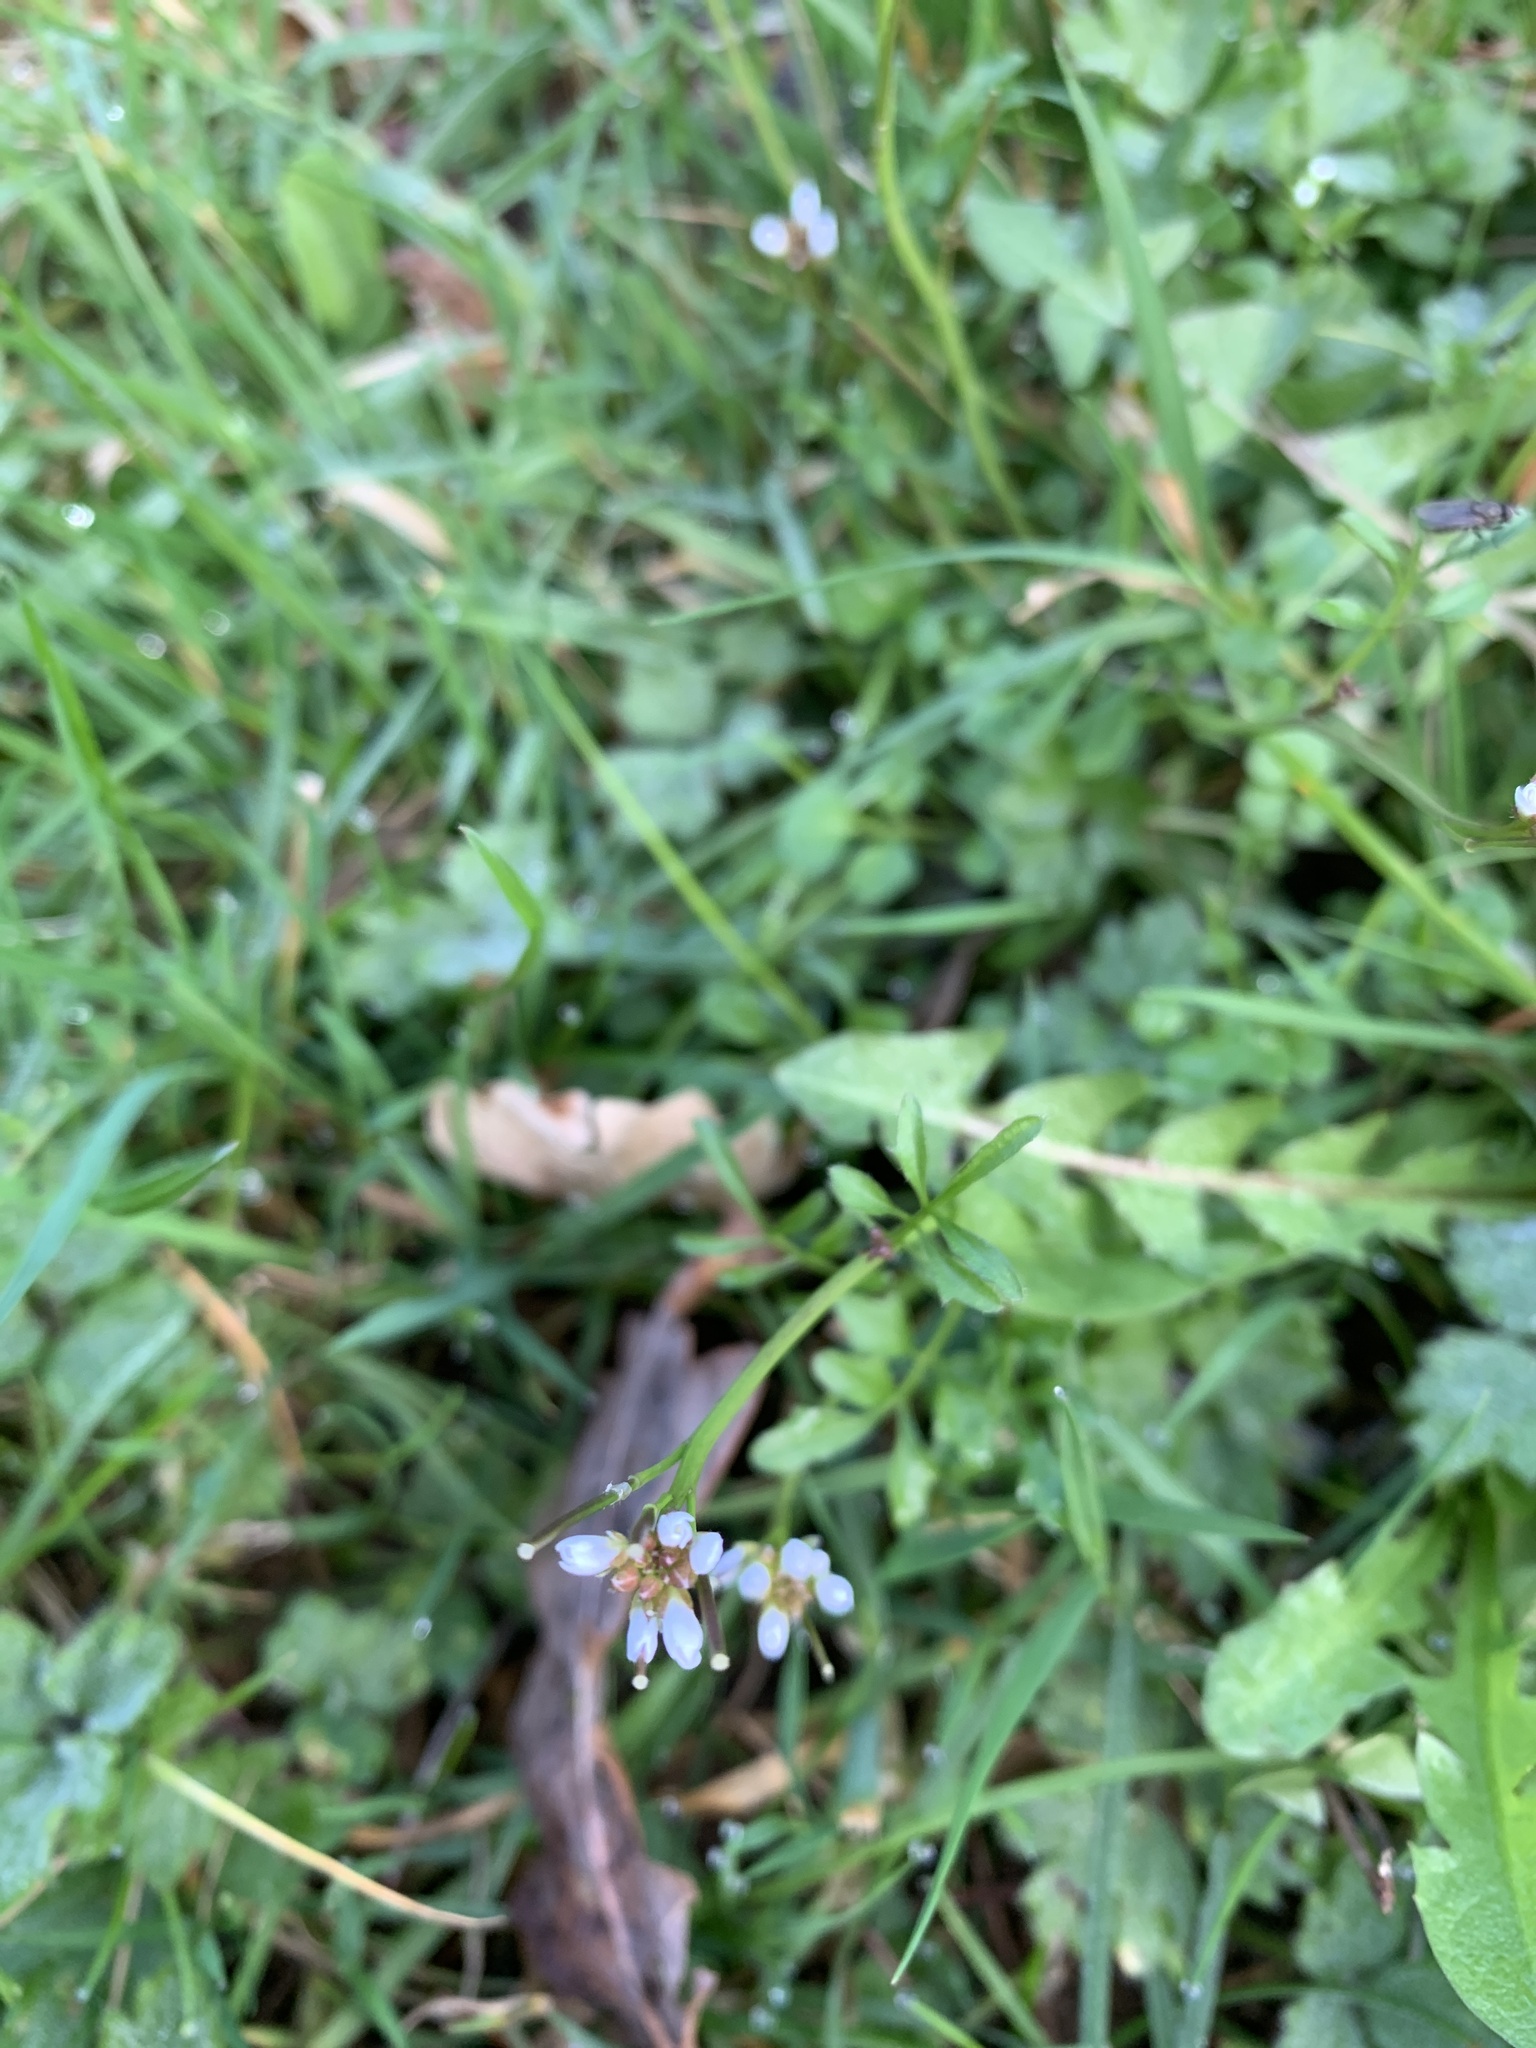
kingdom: Plantae
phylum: Tracheophyta
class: Magnoliopsida
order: Brassicales
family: Brassicaceae
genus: Cardamine
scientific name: Cardamine hirsuta
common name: Hairy bittercress
